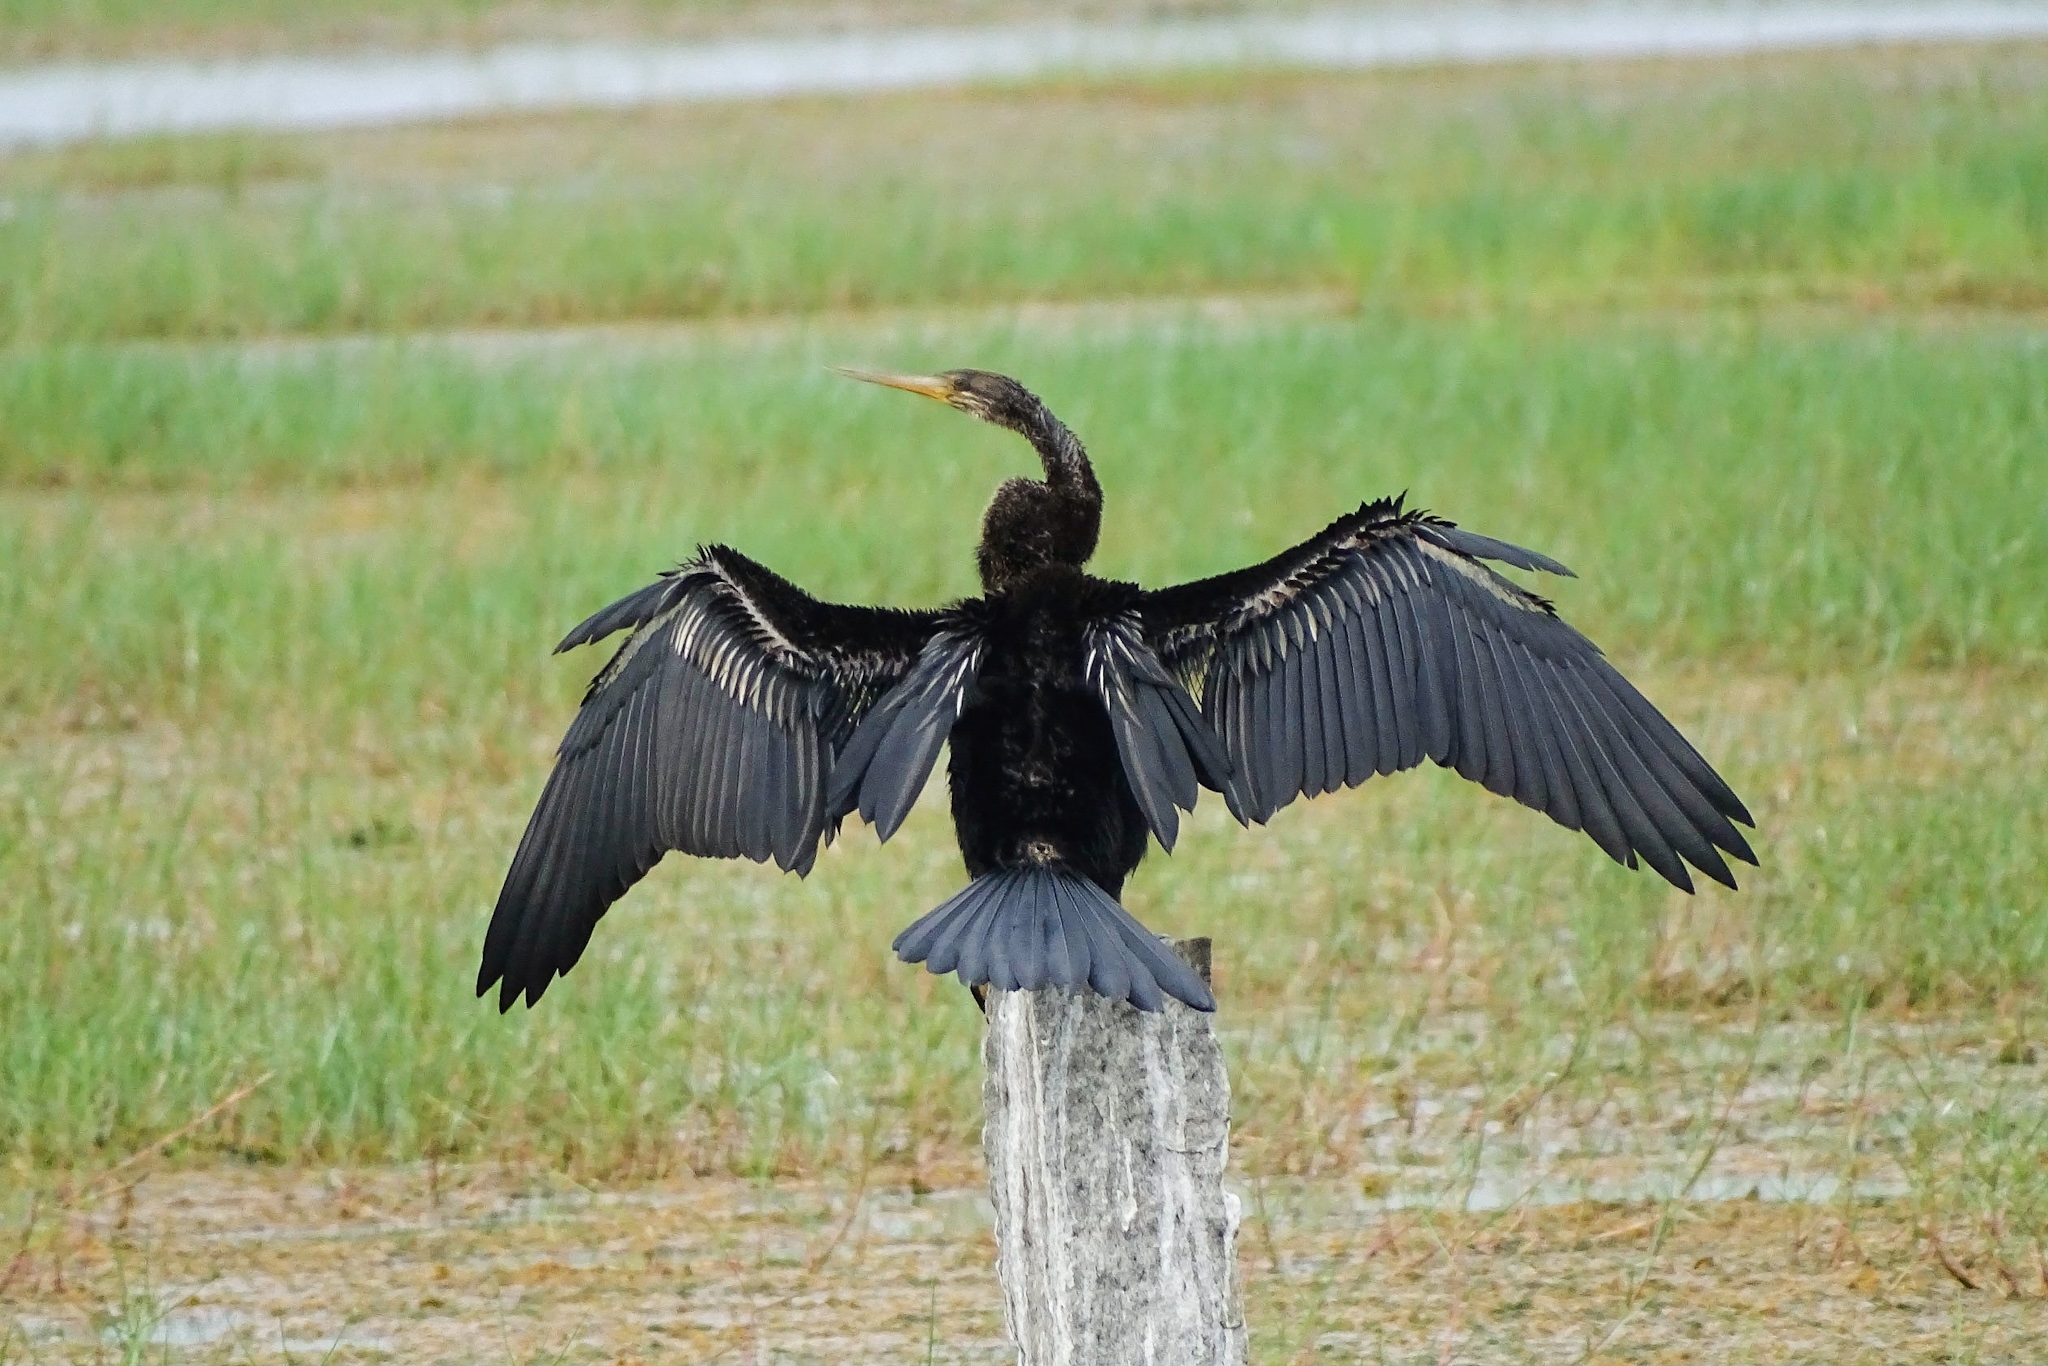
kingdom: Animalia
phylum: Chordata
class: Aves
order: Suliformes
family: Anhingidae
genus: Anhinga
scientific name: Anhinga melanogaster
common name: Oriental darter
